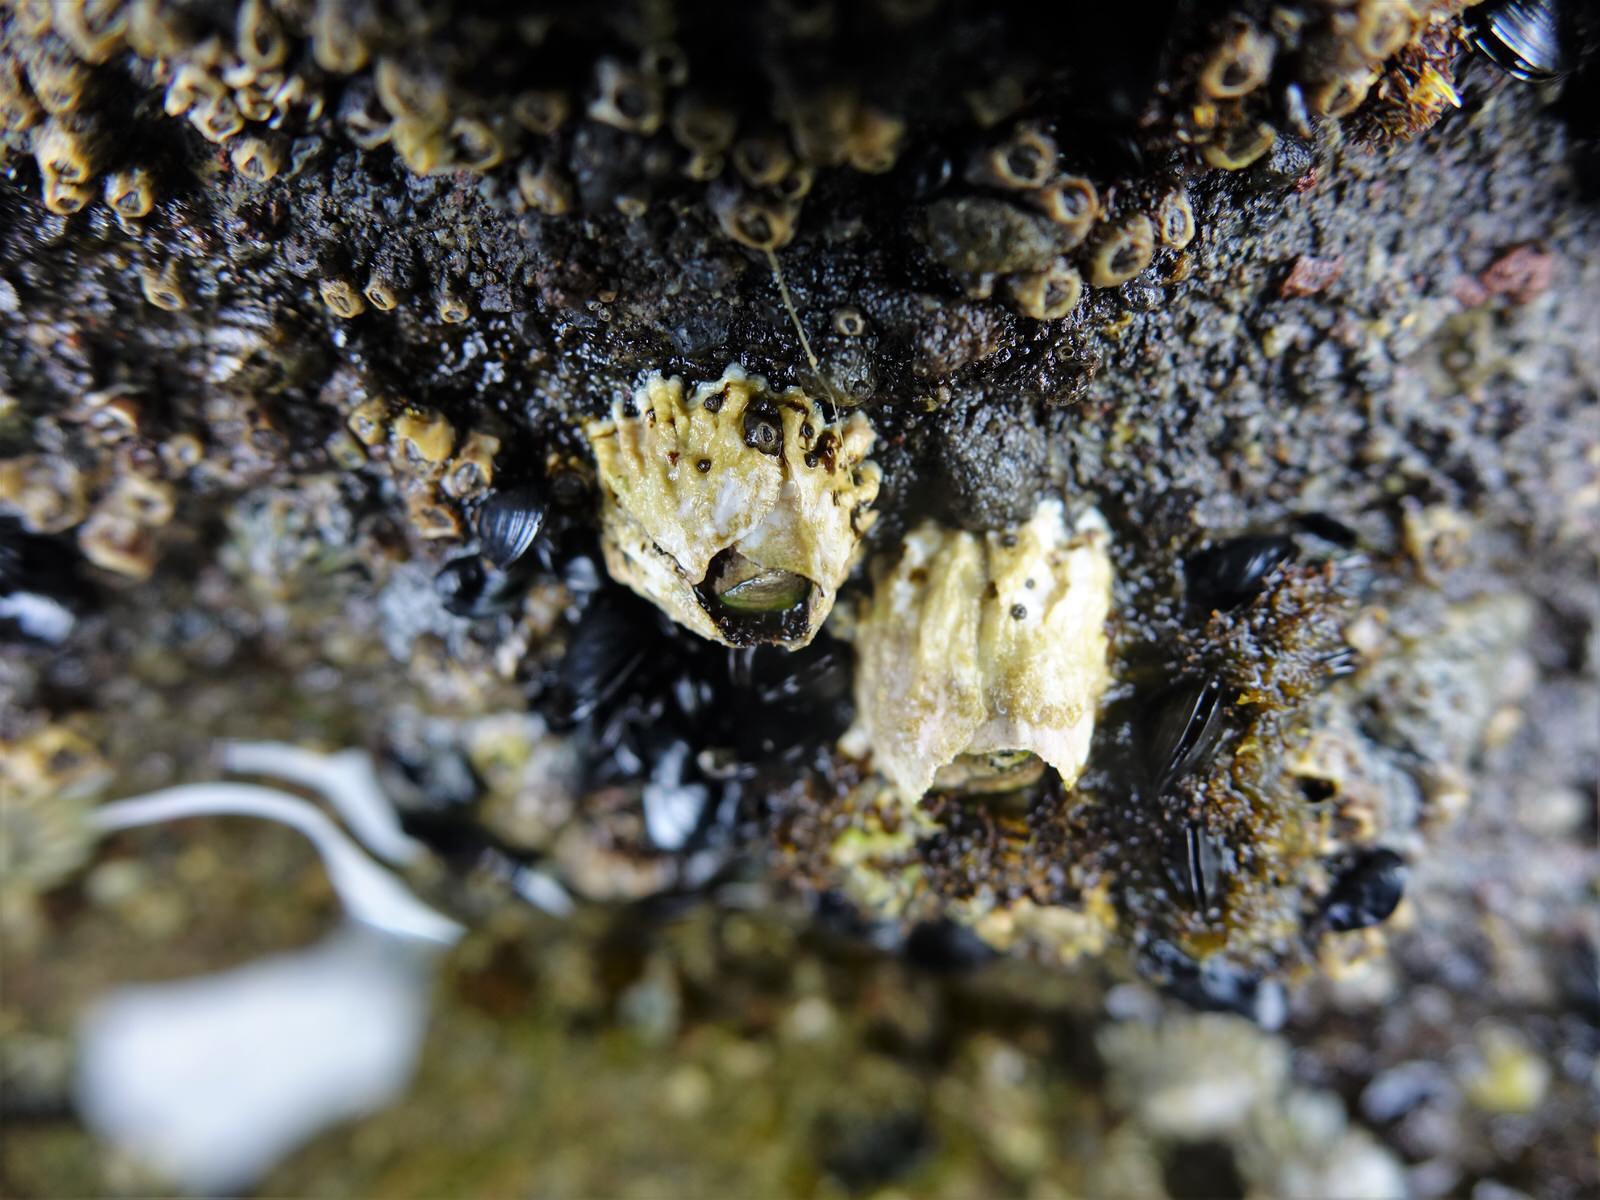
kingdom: Animalia
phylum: Arthropoda
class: Maxillopoda
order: Sessilia
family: Tetraclitidae
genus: Epopella
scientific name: Epopella plicata
